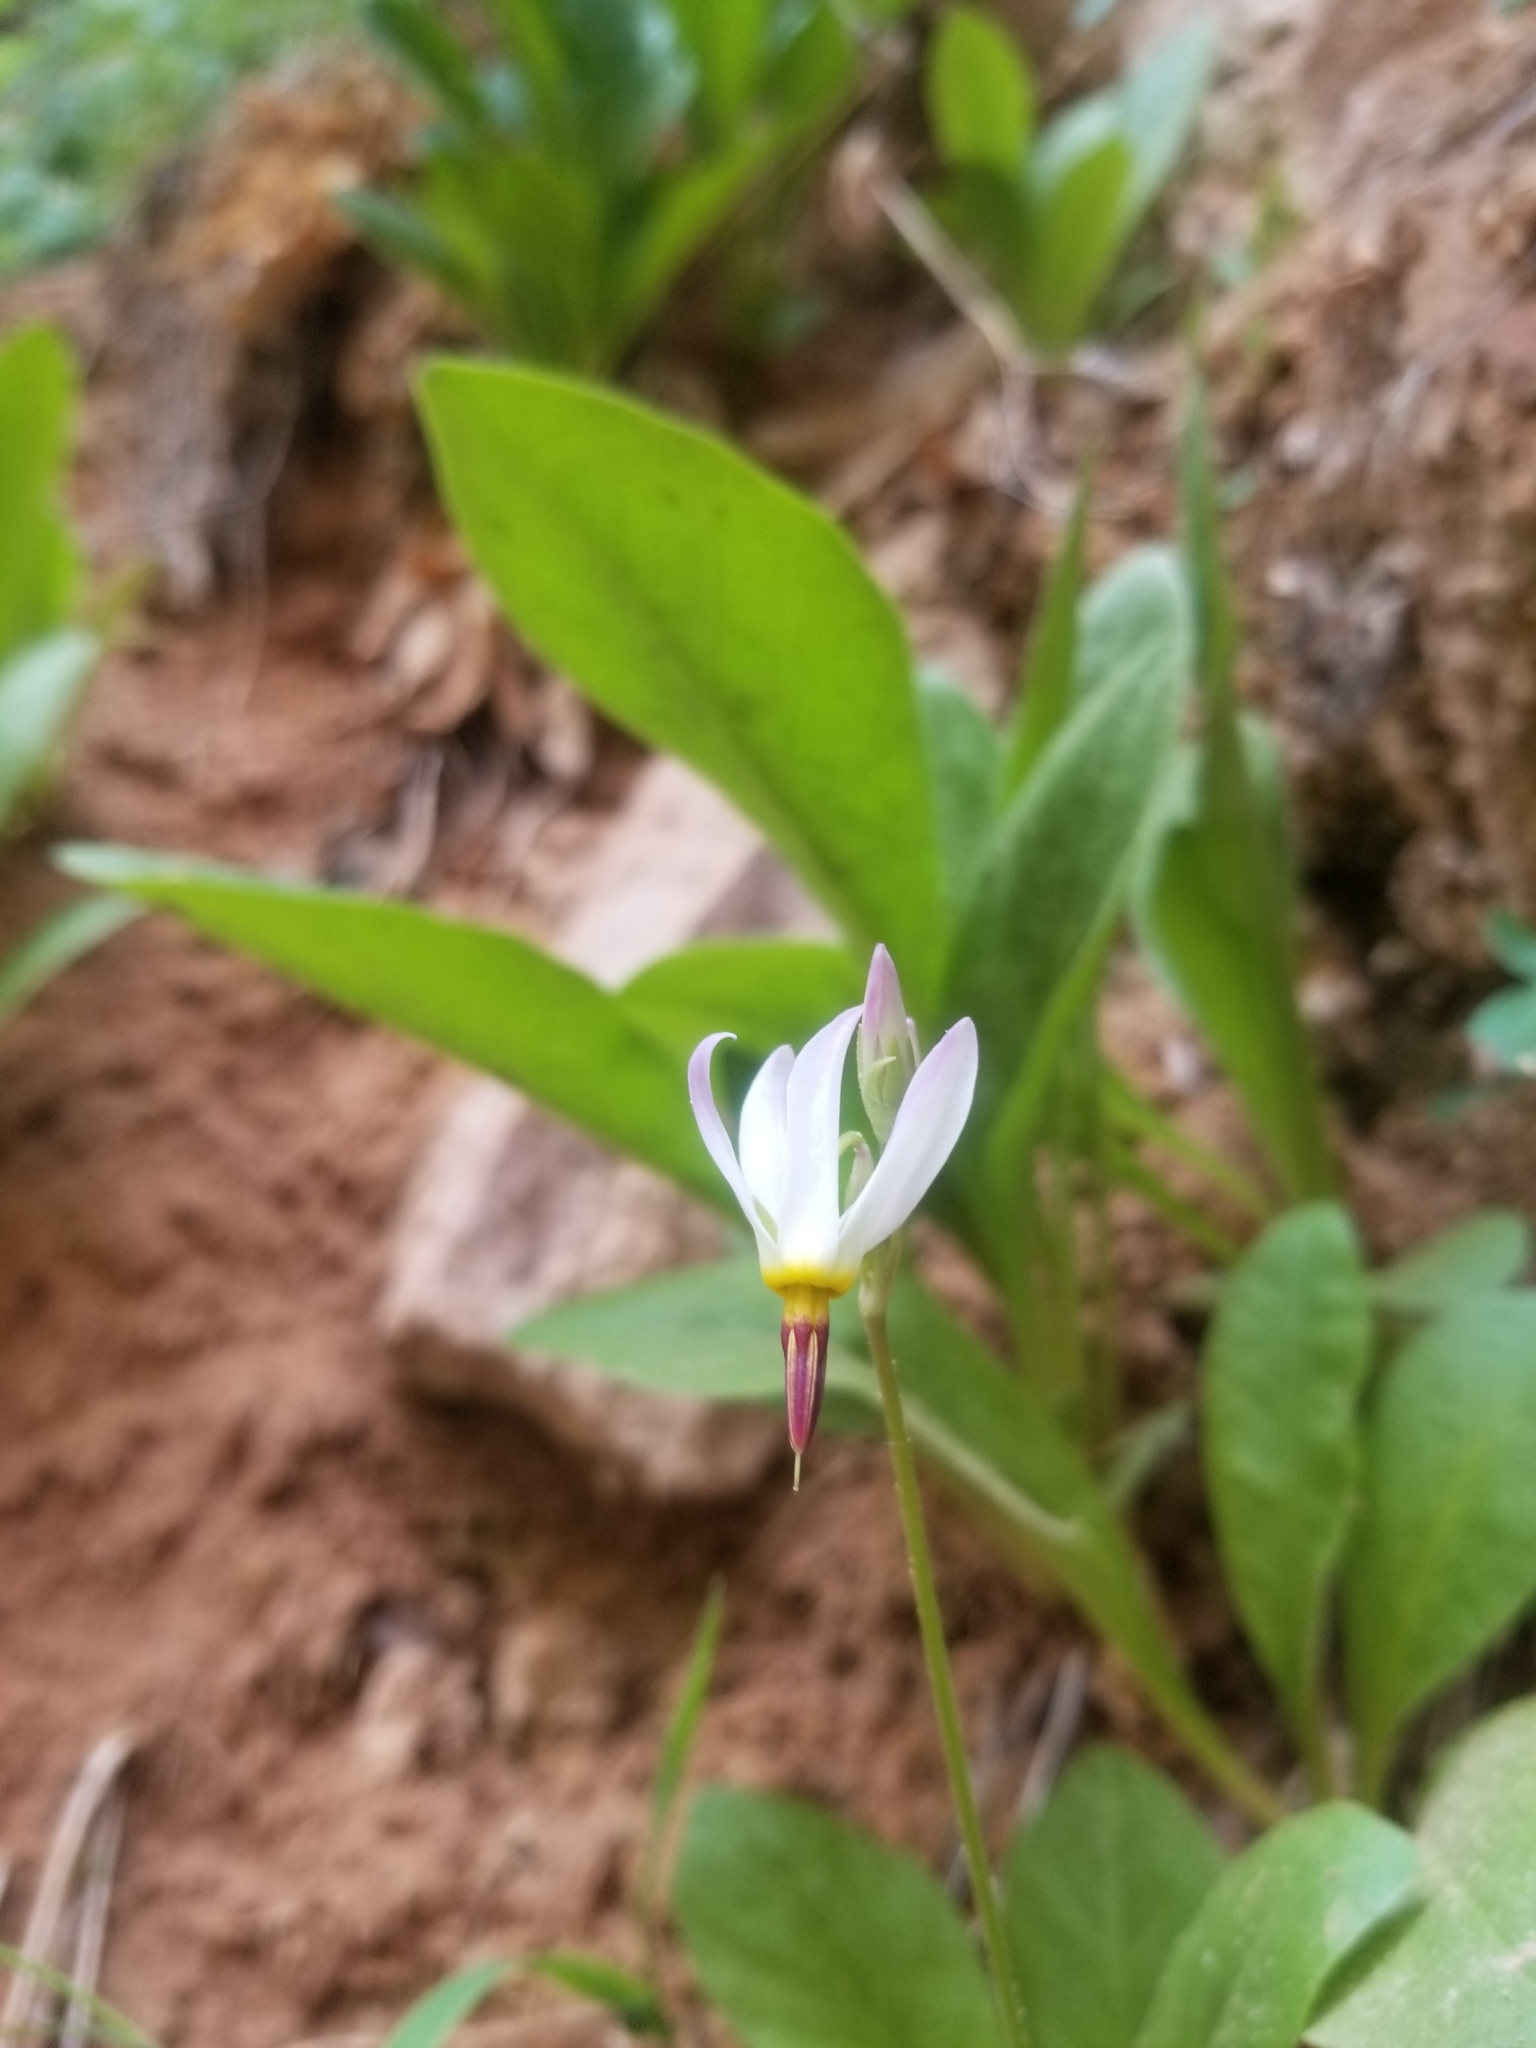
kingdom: Plantae
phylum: Tracheophyta
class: Magnoliopsida
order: Ericales
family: Primulaceae
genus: Dodecatheon
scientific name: Dodecatheon pulchellum
